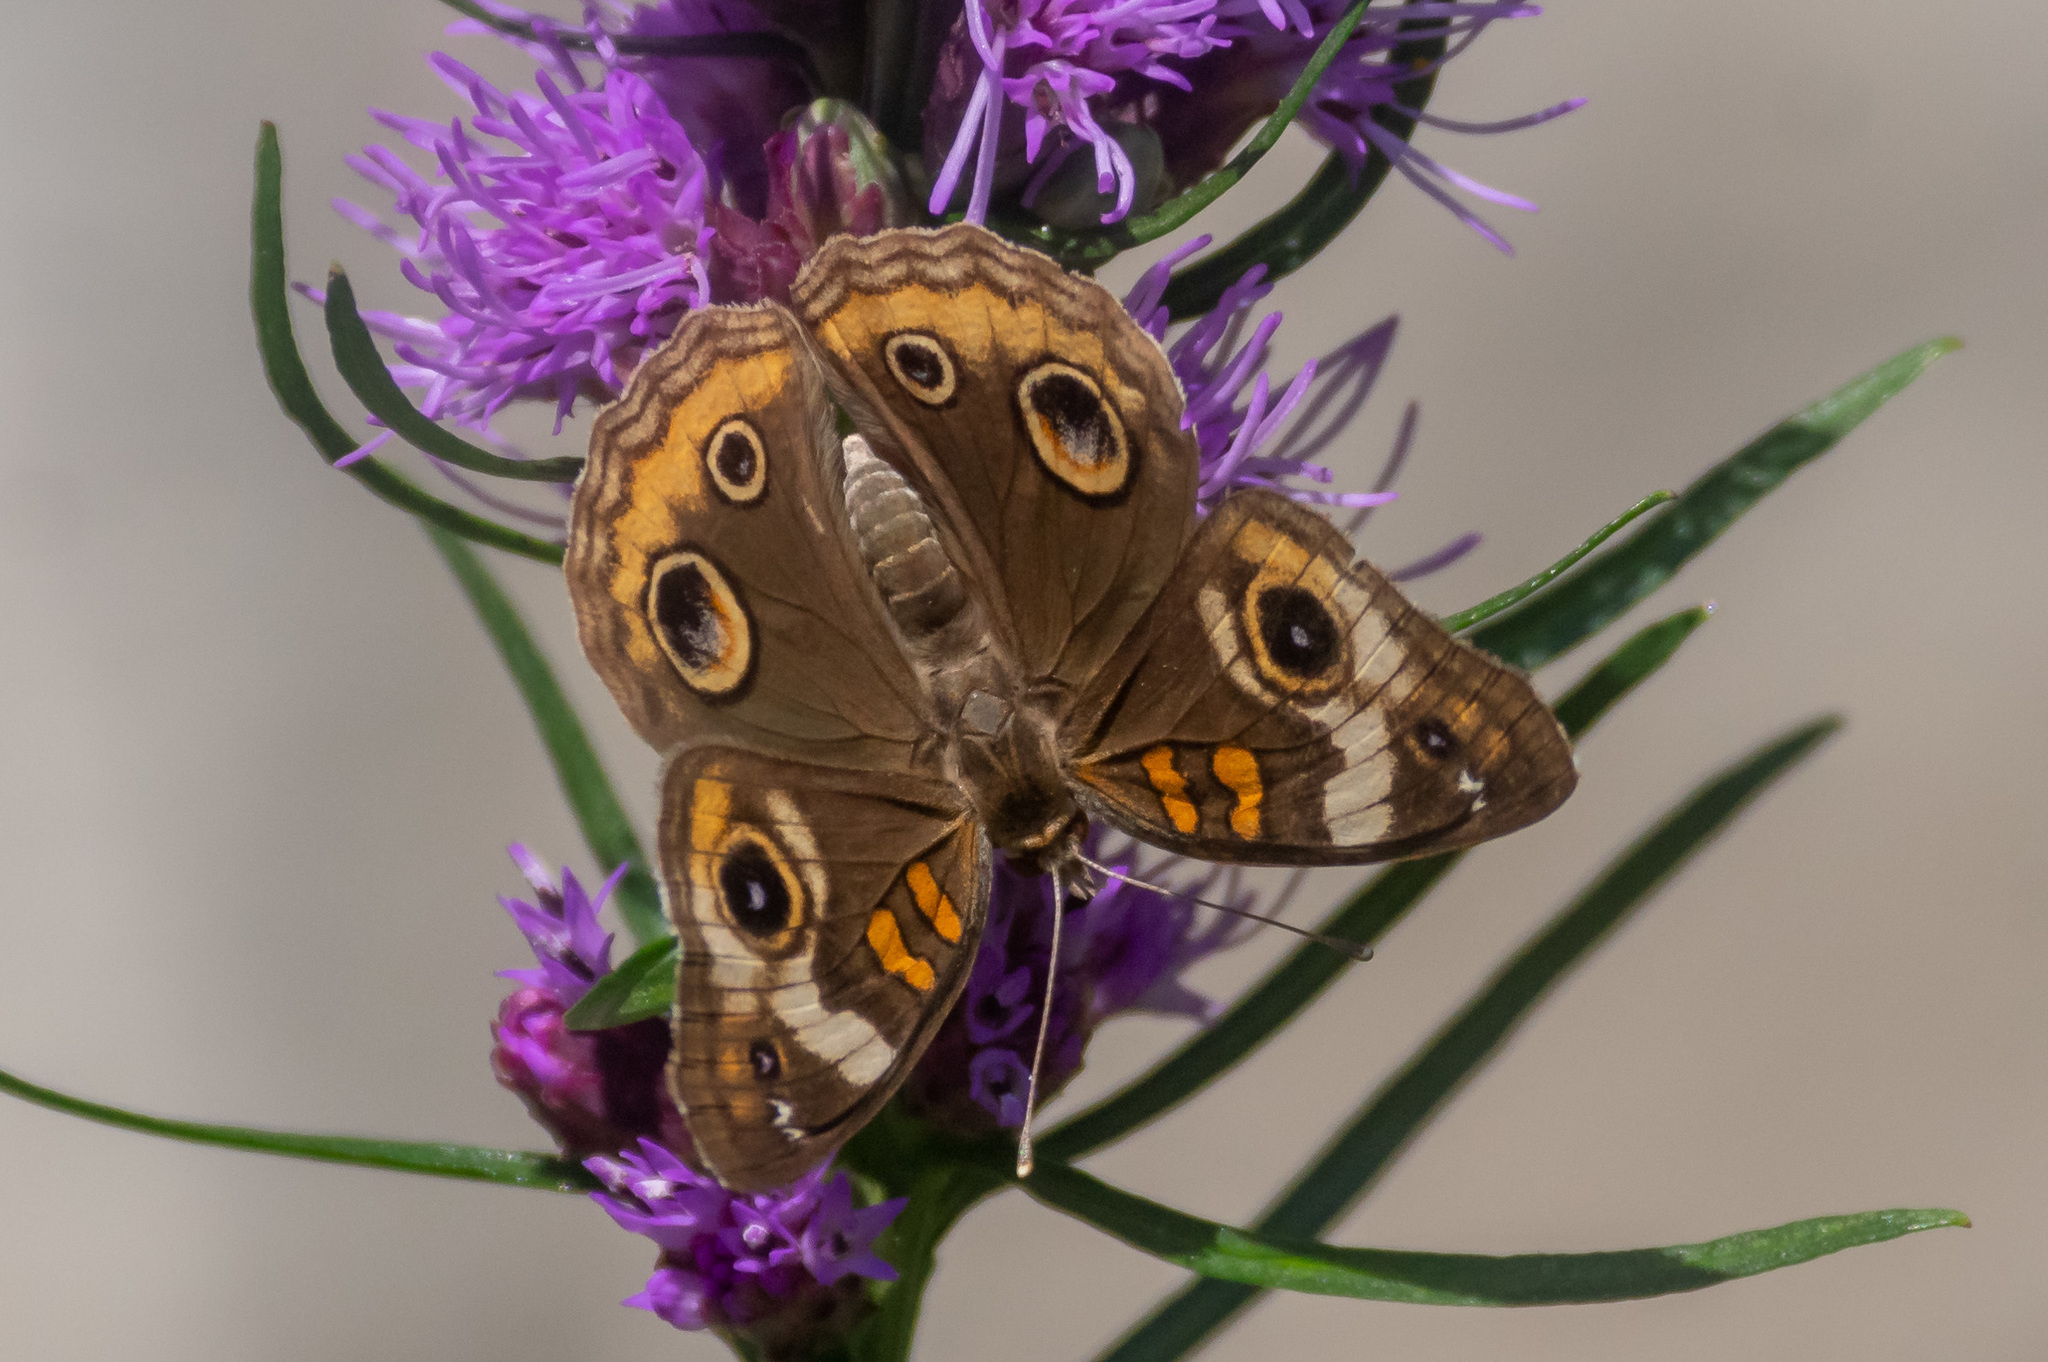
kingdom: Animalia
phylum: Arthropoda
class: Insecta
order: Lepidoptera
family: Nymphalidae
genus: Junonia
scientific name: Junonia coenia
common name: Common buckeye
